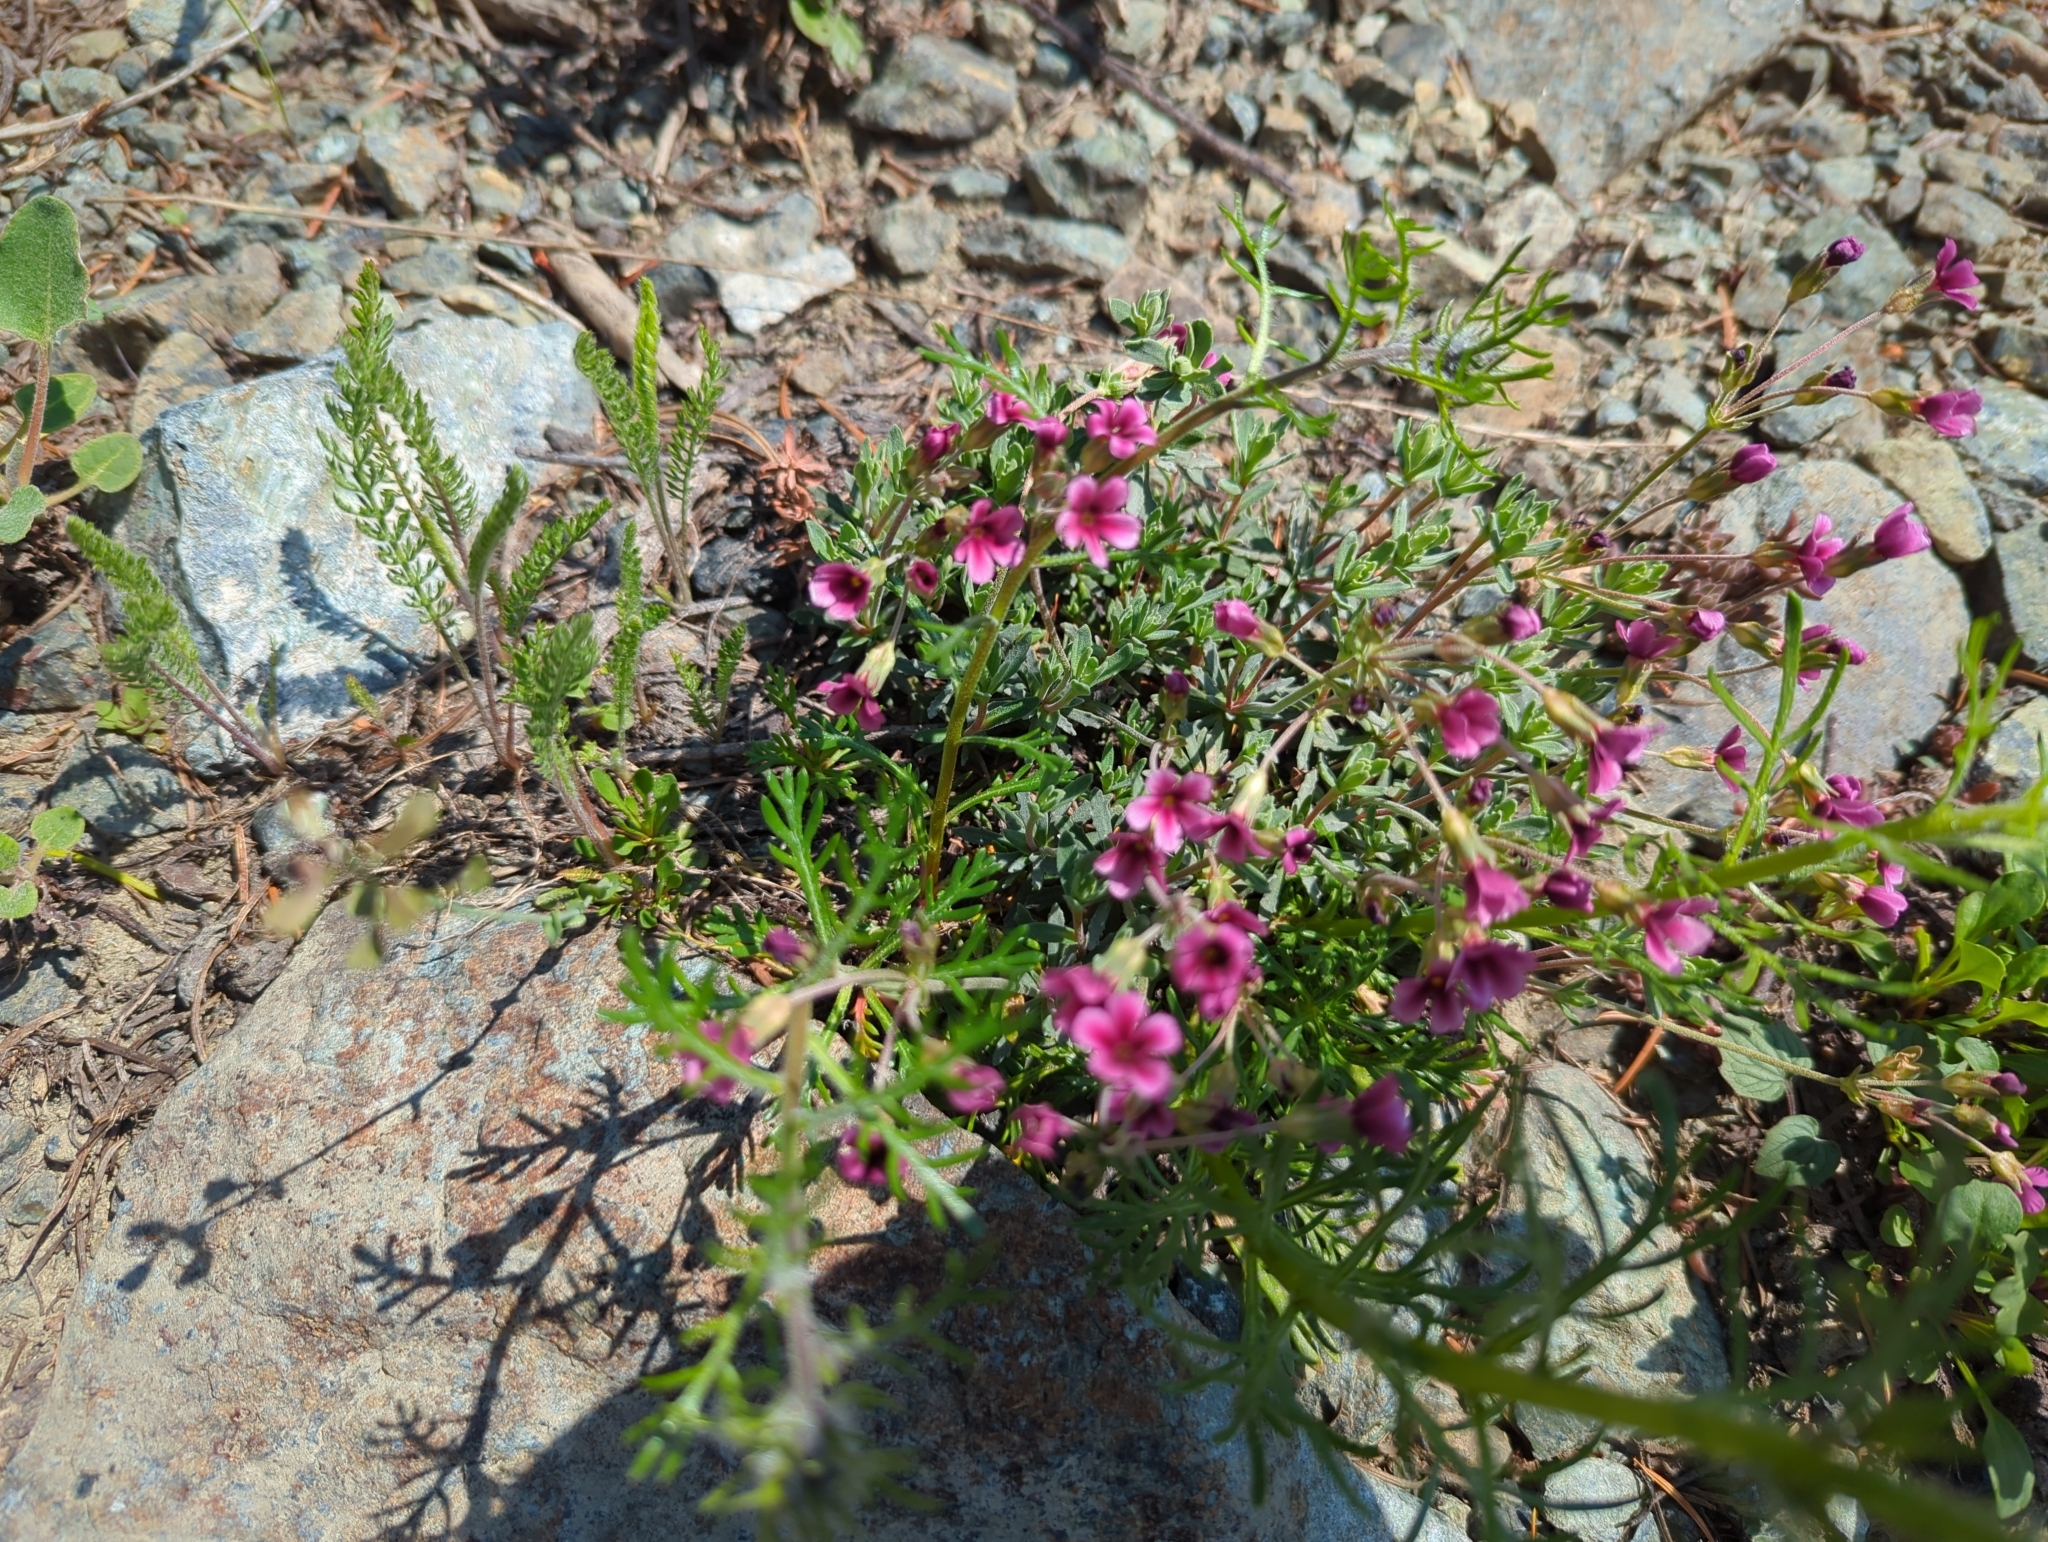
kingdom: Plantae
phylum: Tracheophyta
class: Magnoliopsida
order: Ericales
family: Primulaceae
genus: Androsace
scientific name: Androsace nivalis
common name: Snow dwarf-primrose
